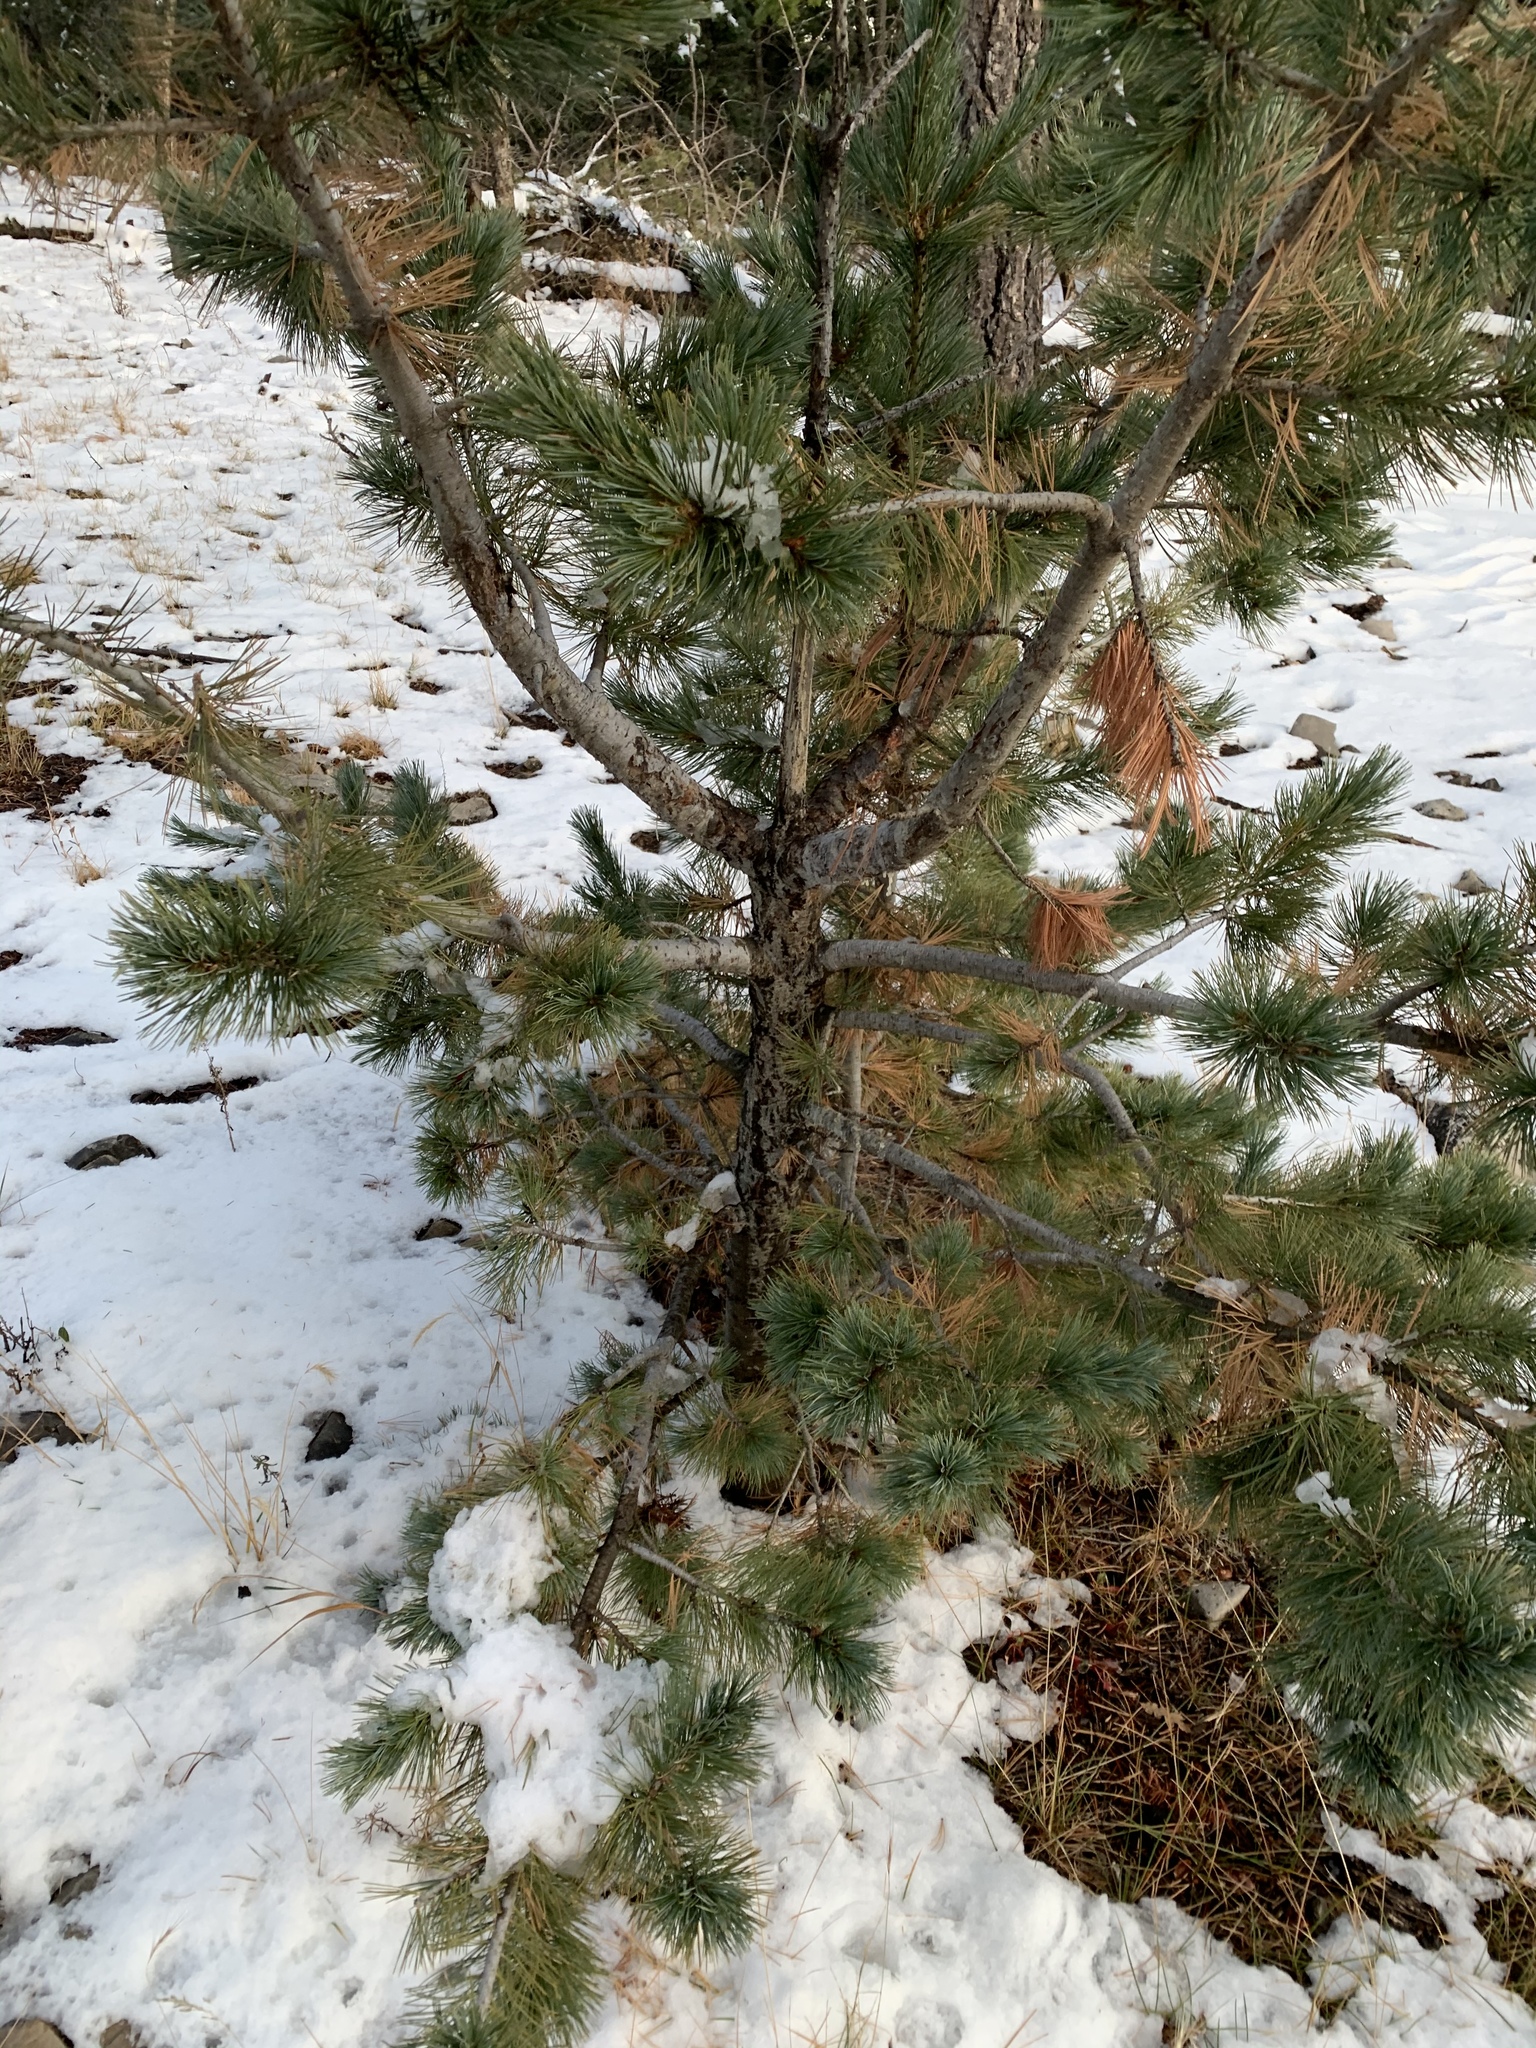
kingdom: Plantae
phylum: Tracheophyta
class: Pinopsida
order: Pinales
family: Pinaceae
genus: Pinus
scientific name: Pinus strobiformis
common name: Southwestern white pine
